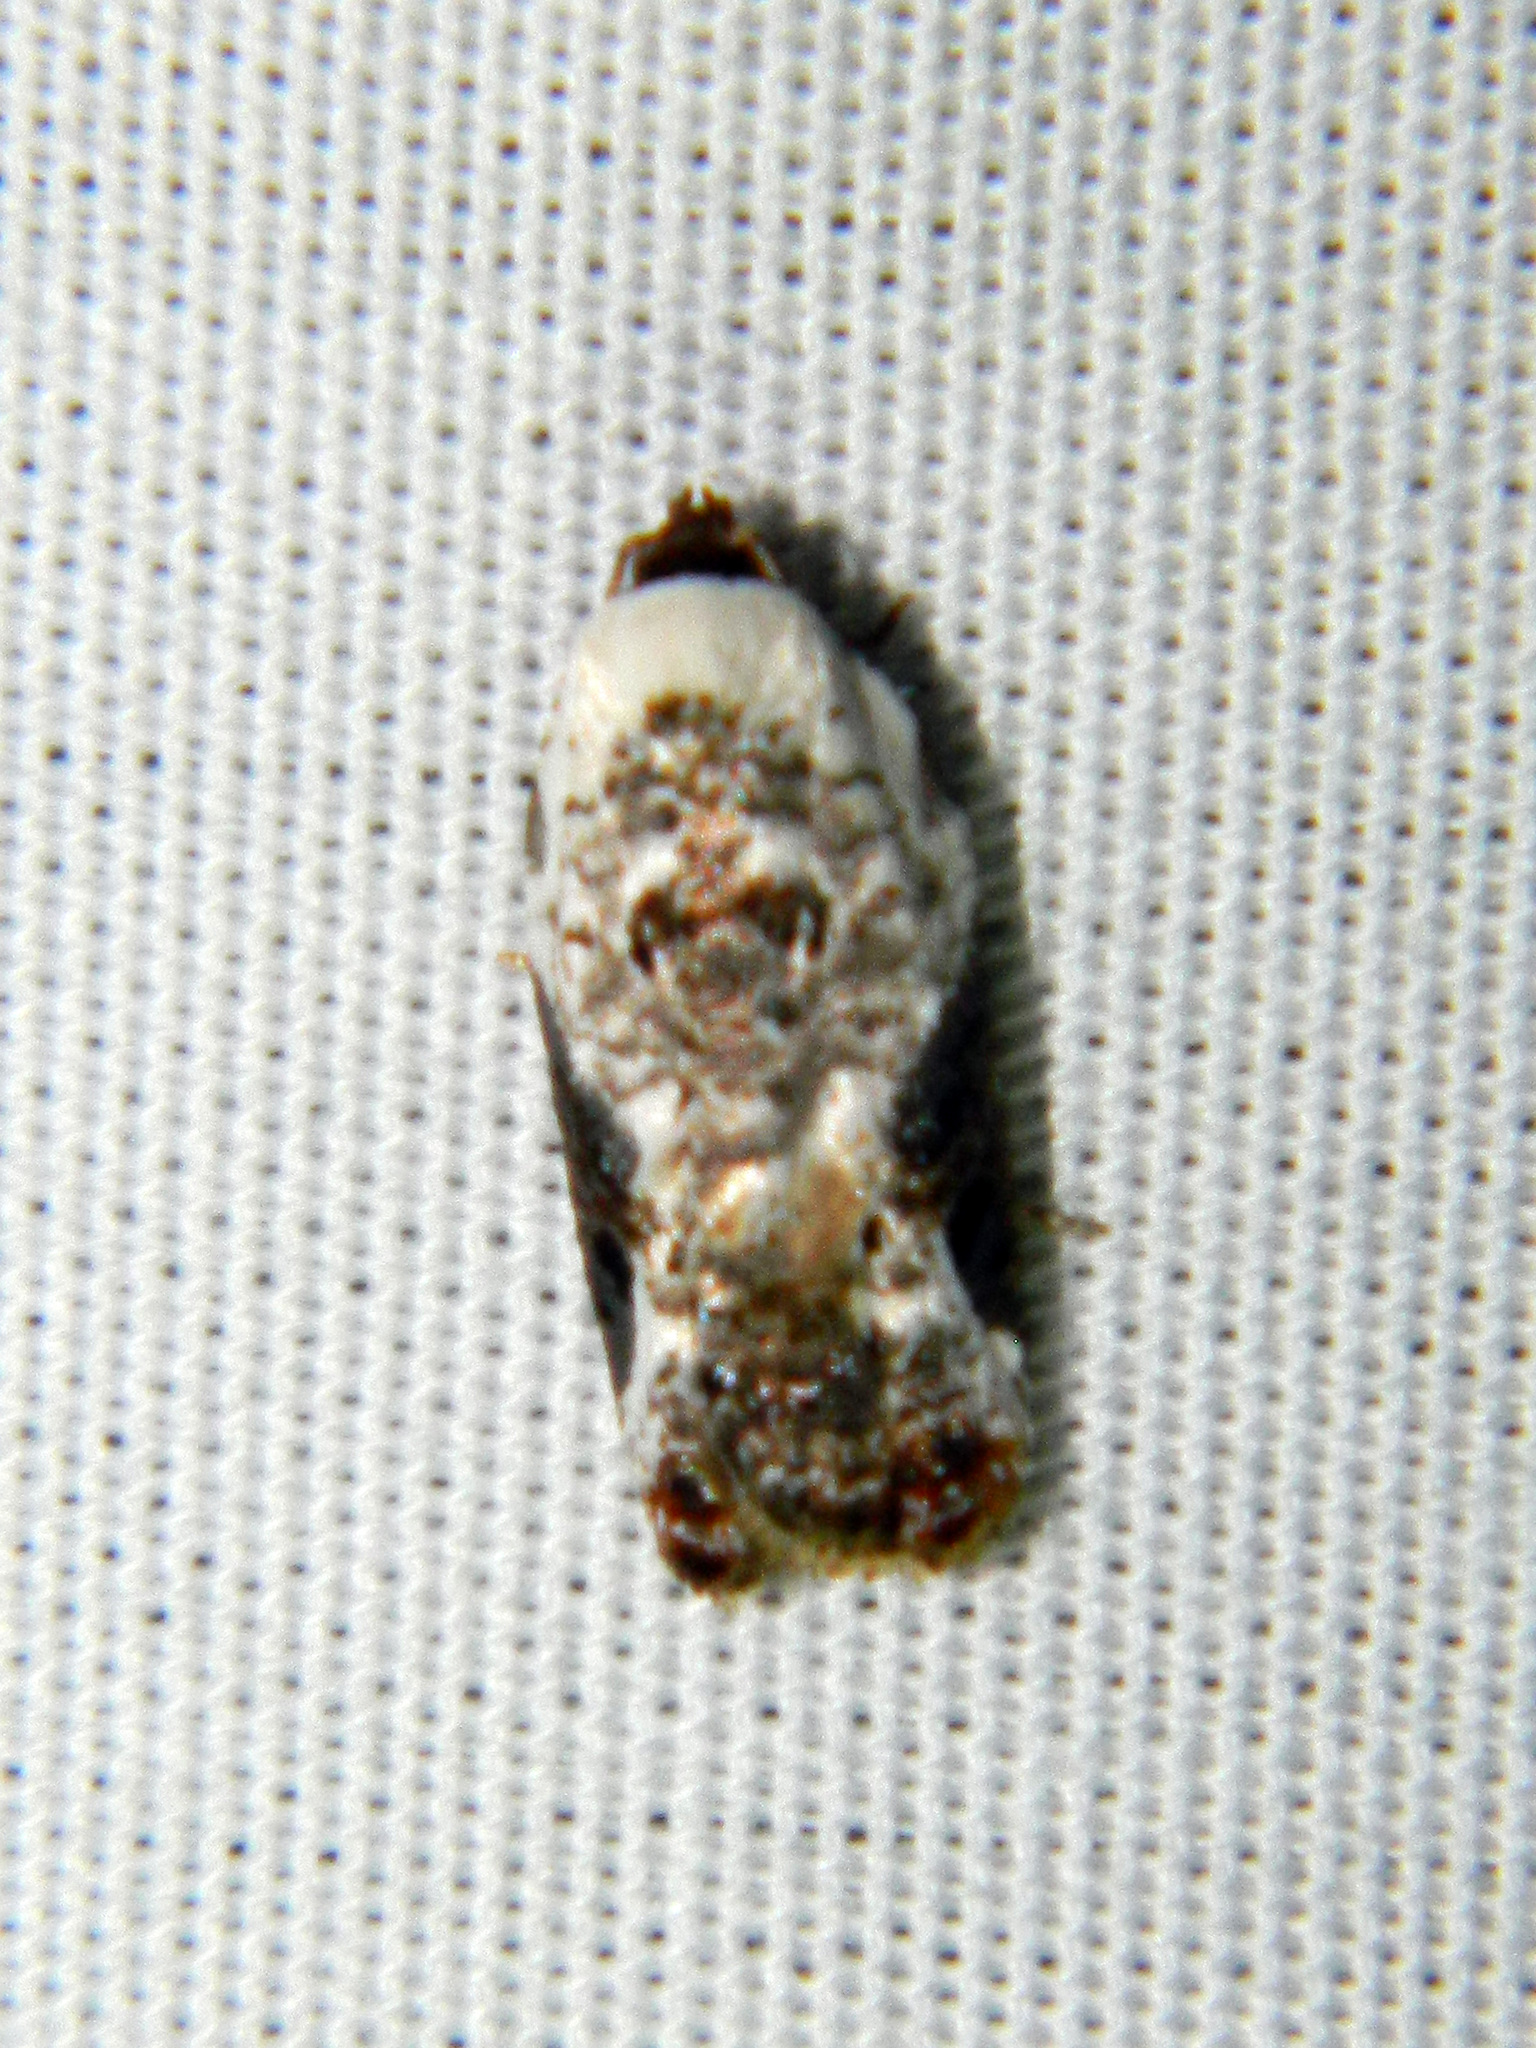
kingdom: Animalia
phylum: Arthropoda
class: Insecta
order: Lepidoptera
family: Tortricidae
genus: Acleris
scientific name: Acleris nivisellana
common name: Snowy-shouldered acleris moth
